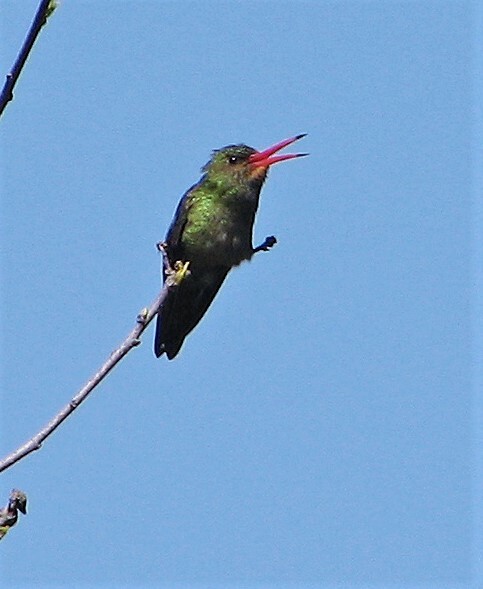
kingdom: Animalia
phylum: Chordata
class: Aves
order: Apodiformes
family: Trochilidae
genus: Hylocharis
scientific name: Hylocharis chrysura
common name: Gilded sapphire
